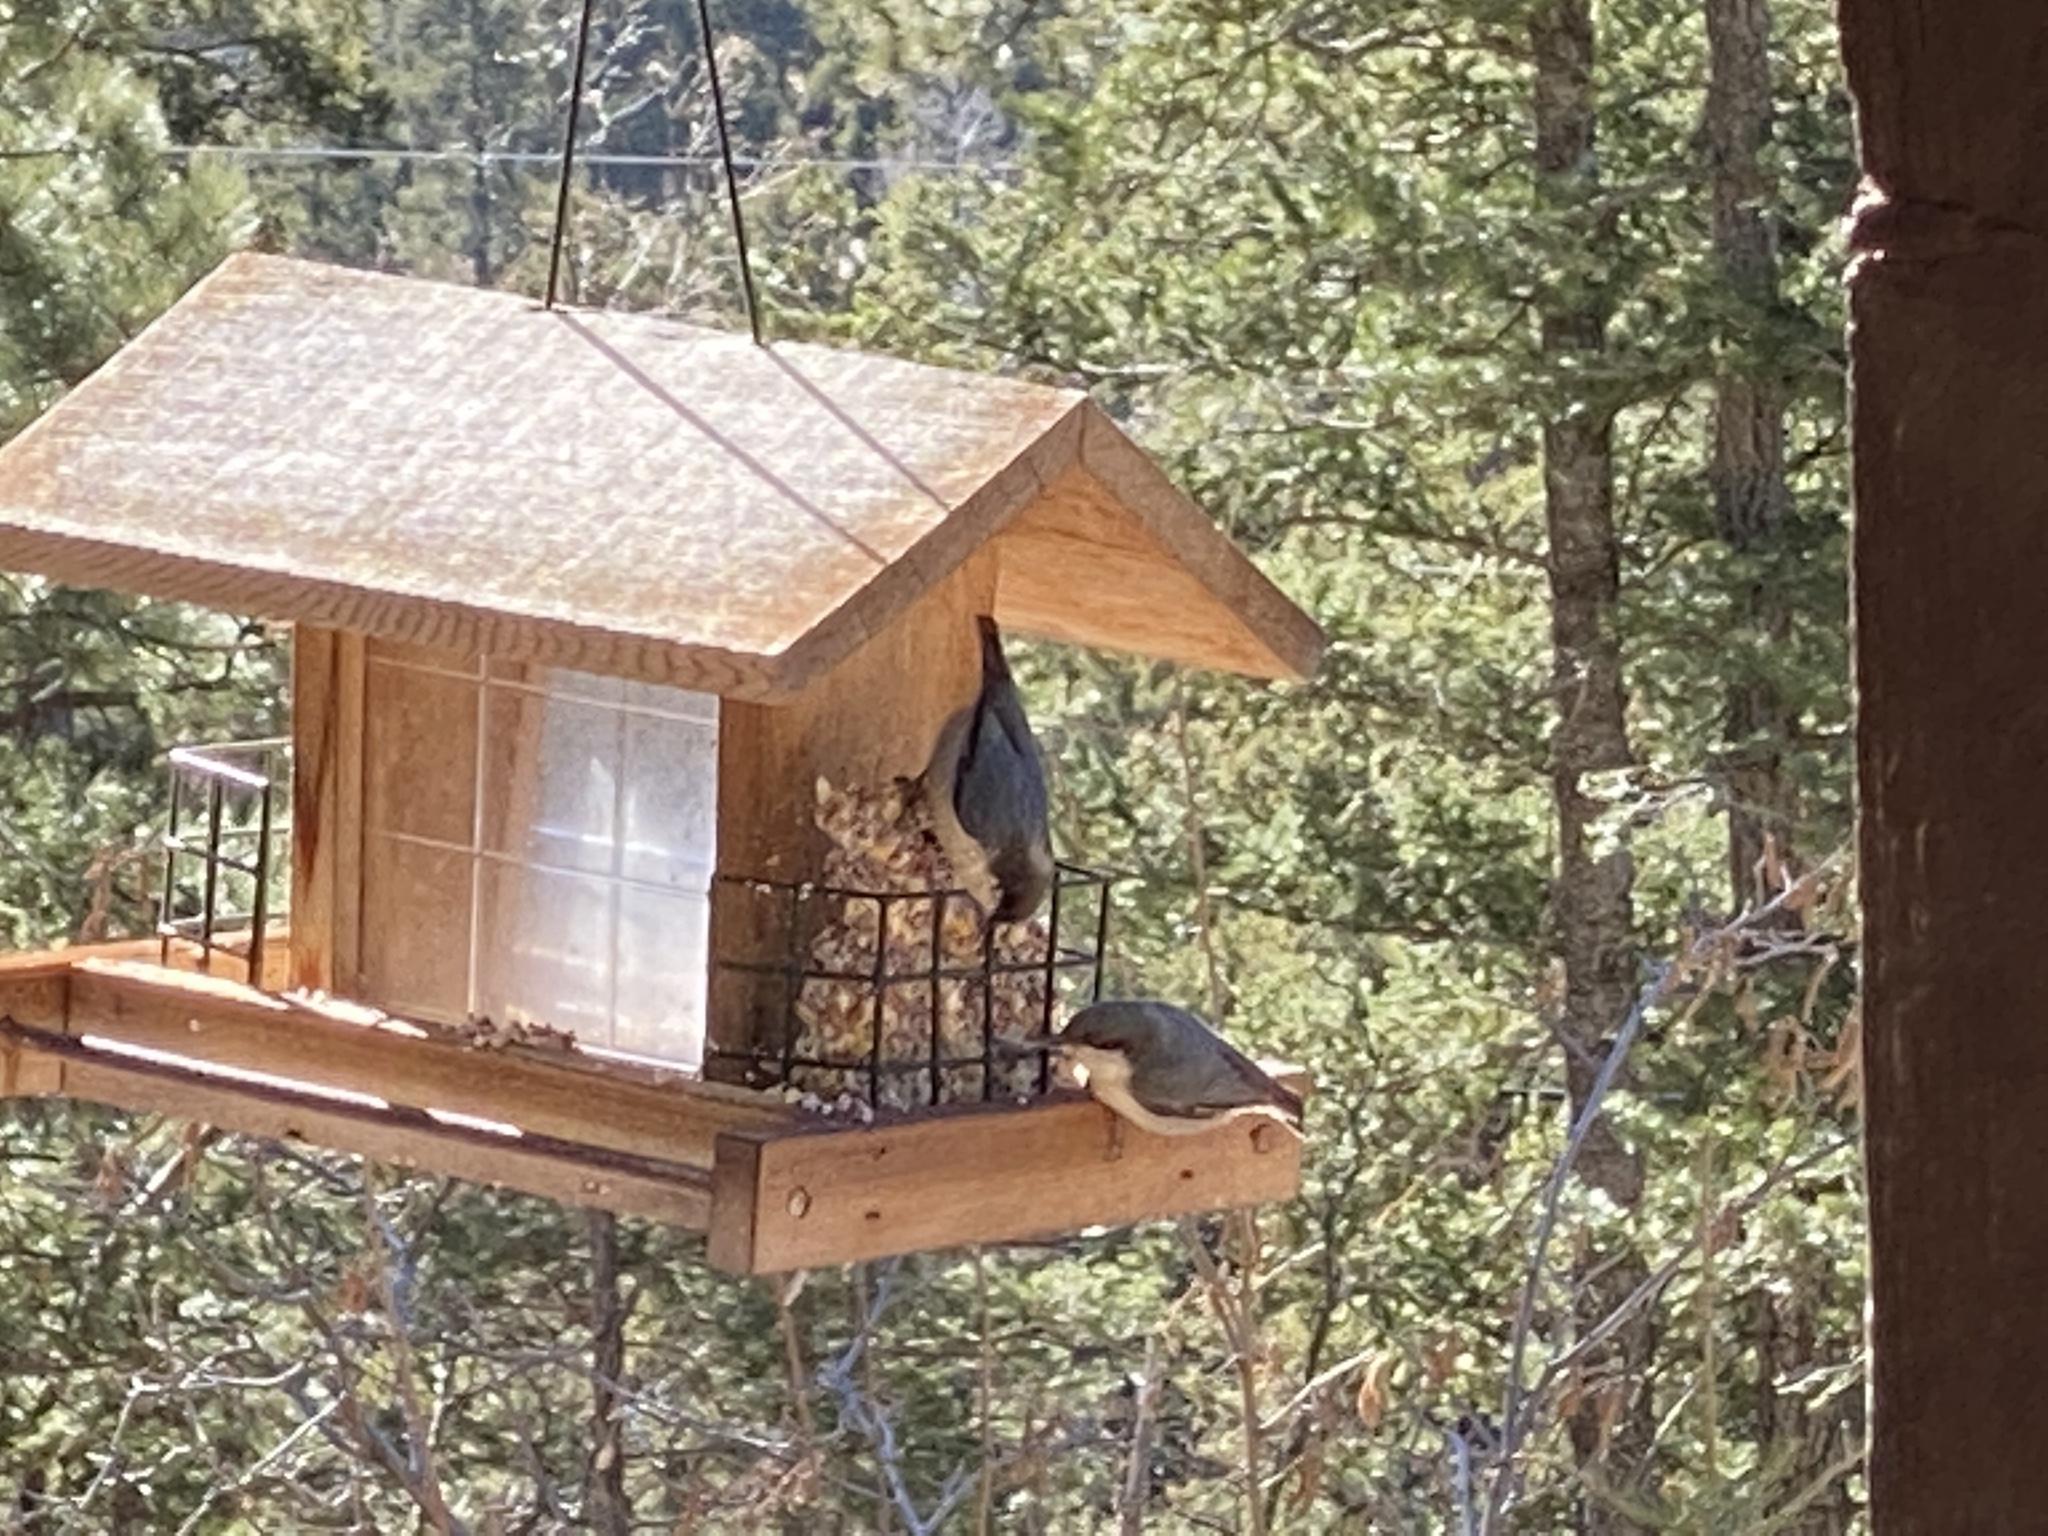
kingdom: Animalia
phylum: Chordata
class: Aves
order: Passeriformes
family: Sittidae
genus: Sitta
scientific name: Sitta pygmaea
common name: Pygmy nuthatch
